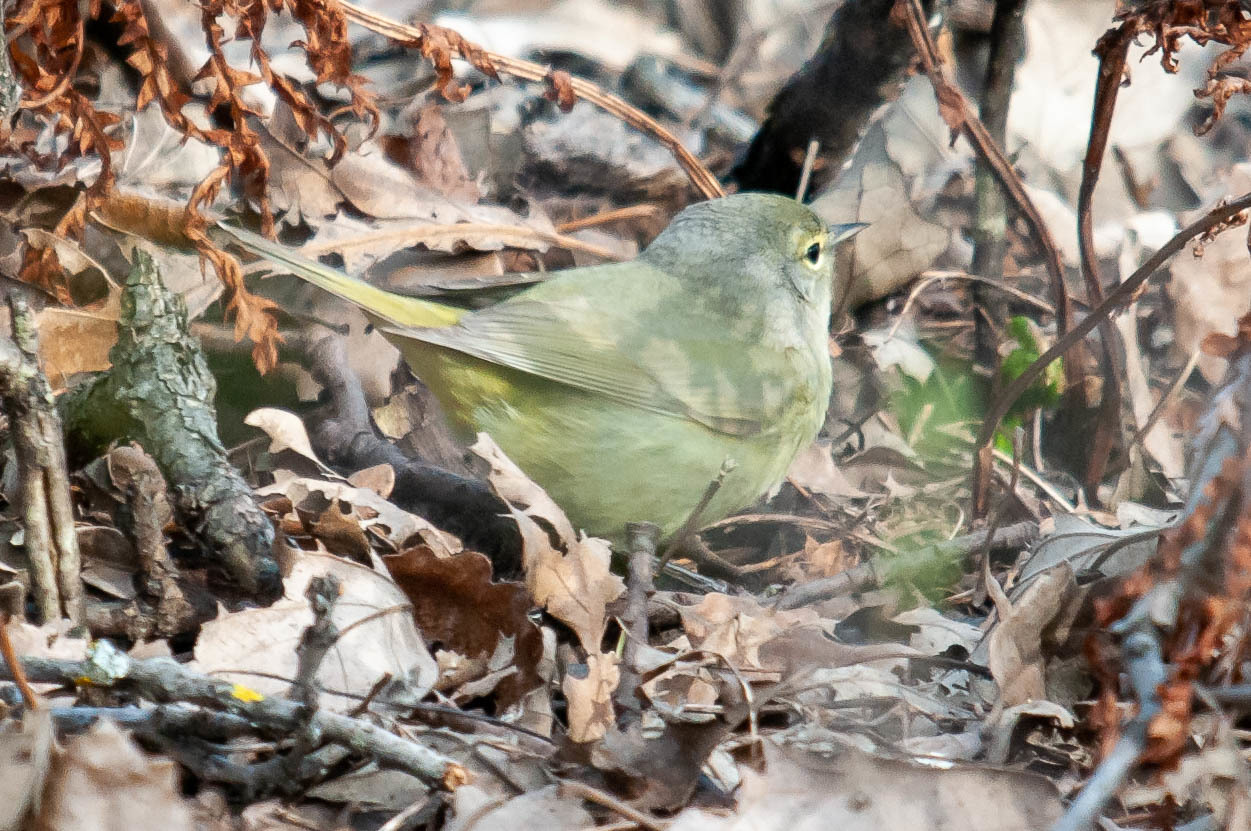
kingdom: Animalia
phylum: Chordata
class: Aves
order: Passeriformes
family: Parulidae
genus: Leiothlypis
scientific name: Leiothlypis celata
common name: Orange-crowned warbler
